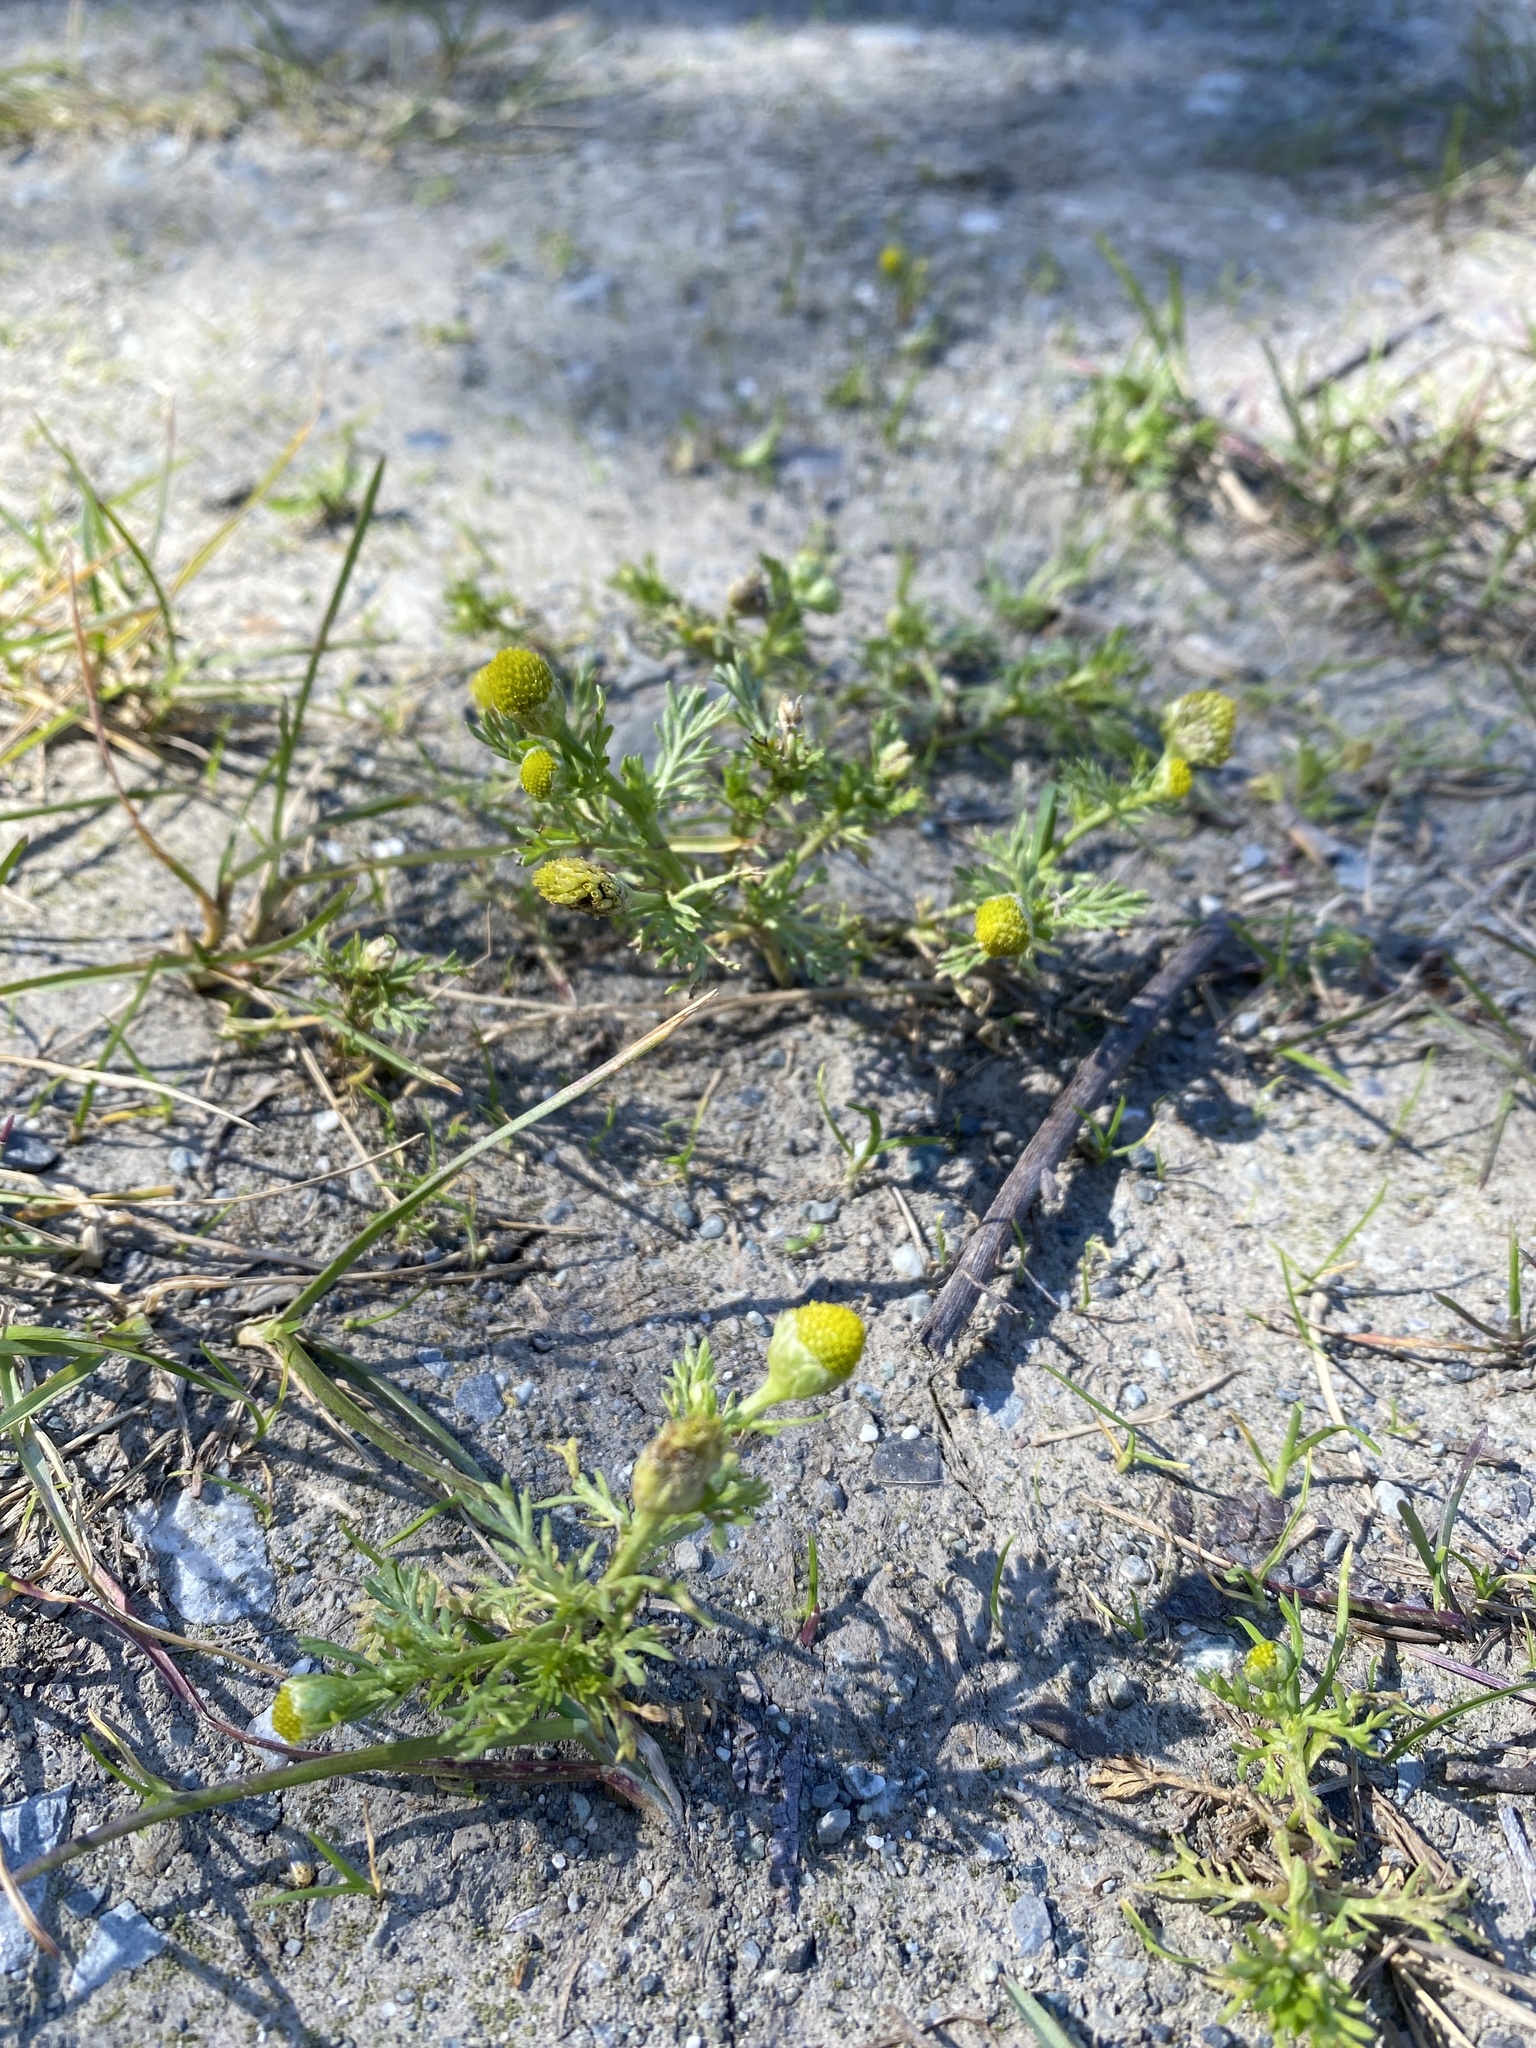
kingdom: Plantae
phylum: Tracheophyta
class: Magnoliopsida
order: Asterales
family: Asteraceae
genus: Matricaria
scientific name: Matricaria discoidea
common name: Disc mayweed
